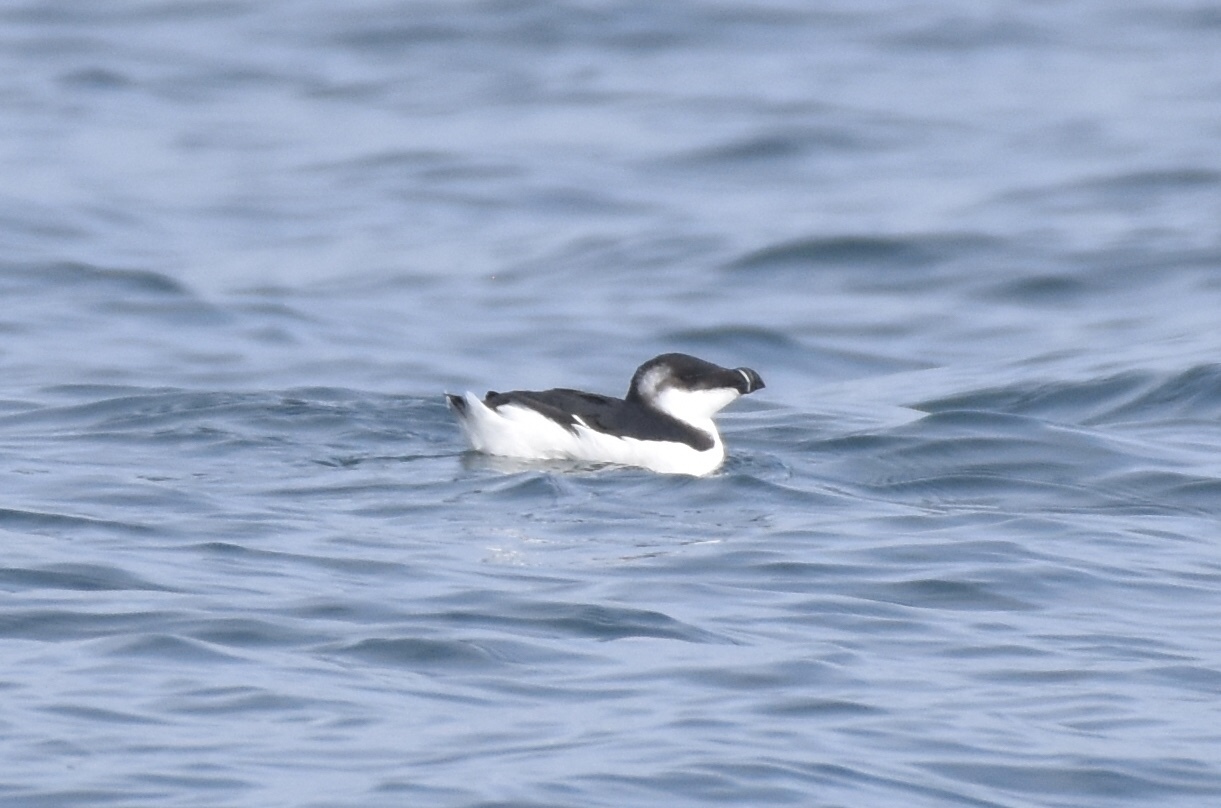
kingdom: Animalia
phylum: Chordata
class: Aves
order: Charadriiformes
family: Alcidae
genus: Alca
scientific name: Alca torda
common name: Razorbill
